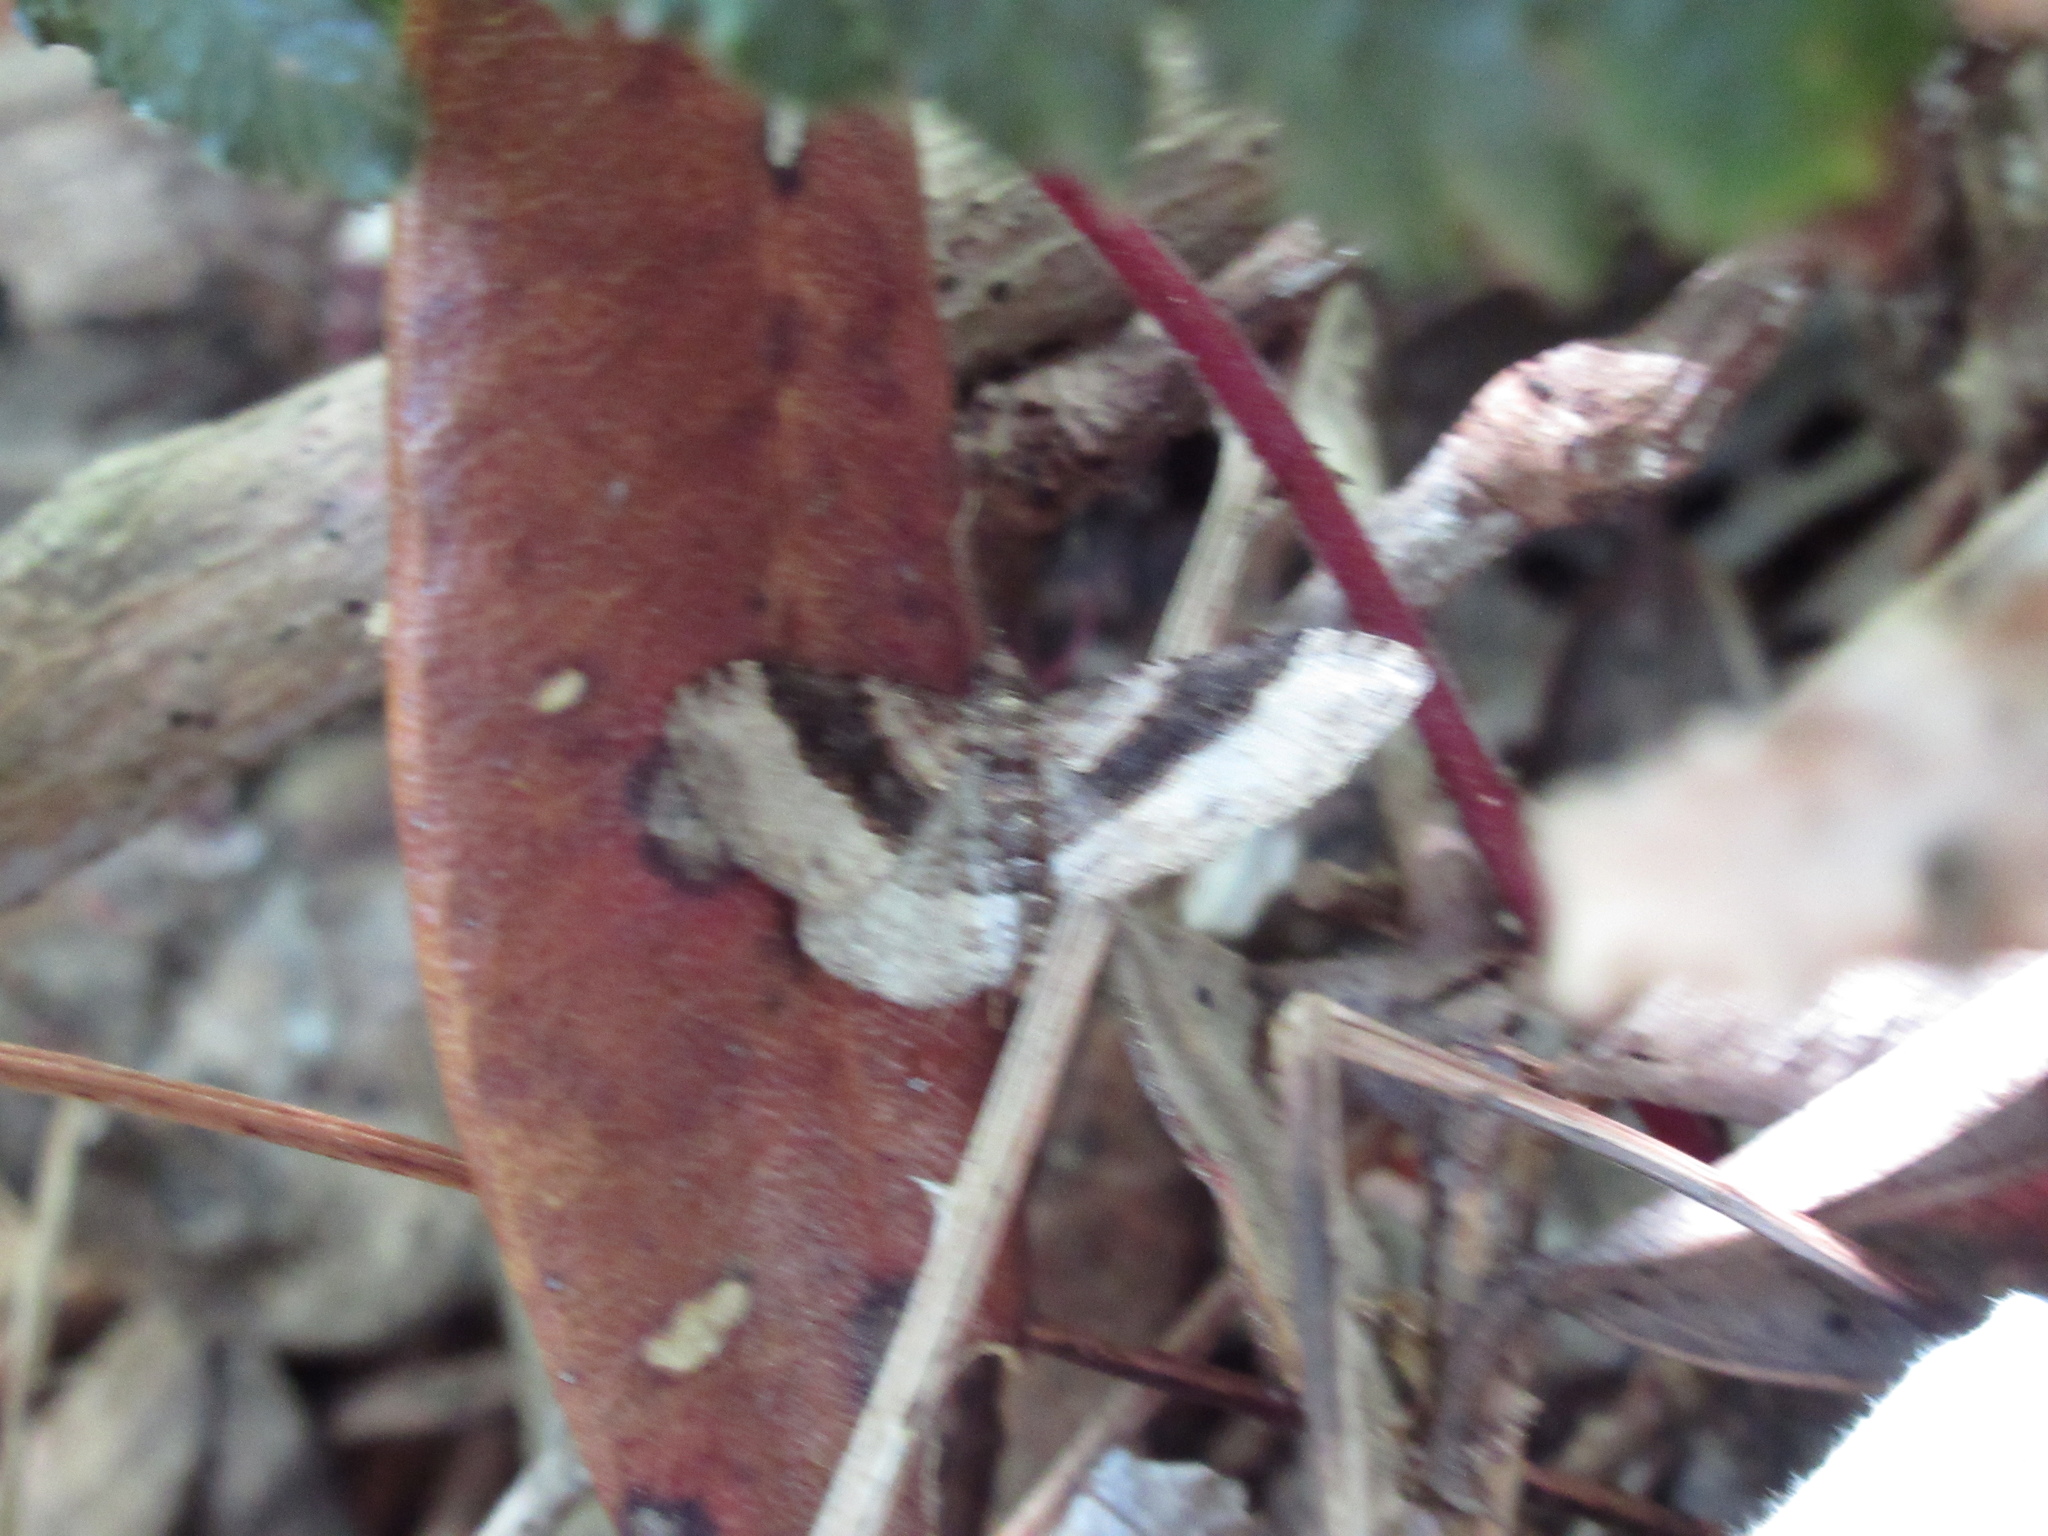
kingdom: Animalia
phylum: Arthropoda
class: Insecta
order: Lepidoptera
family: Geometridae
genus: Epyaxa
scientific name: Epyaxa lucidata
